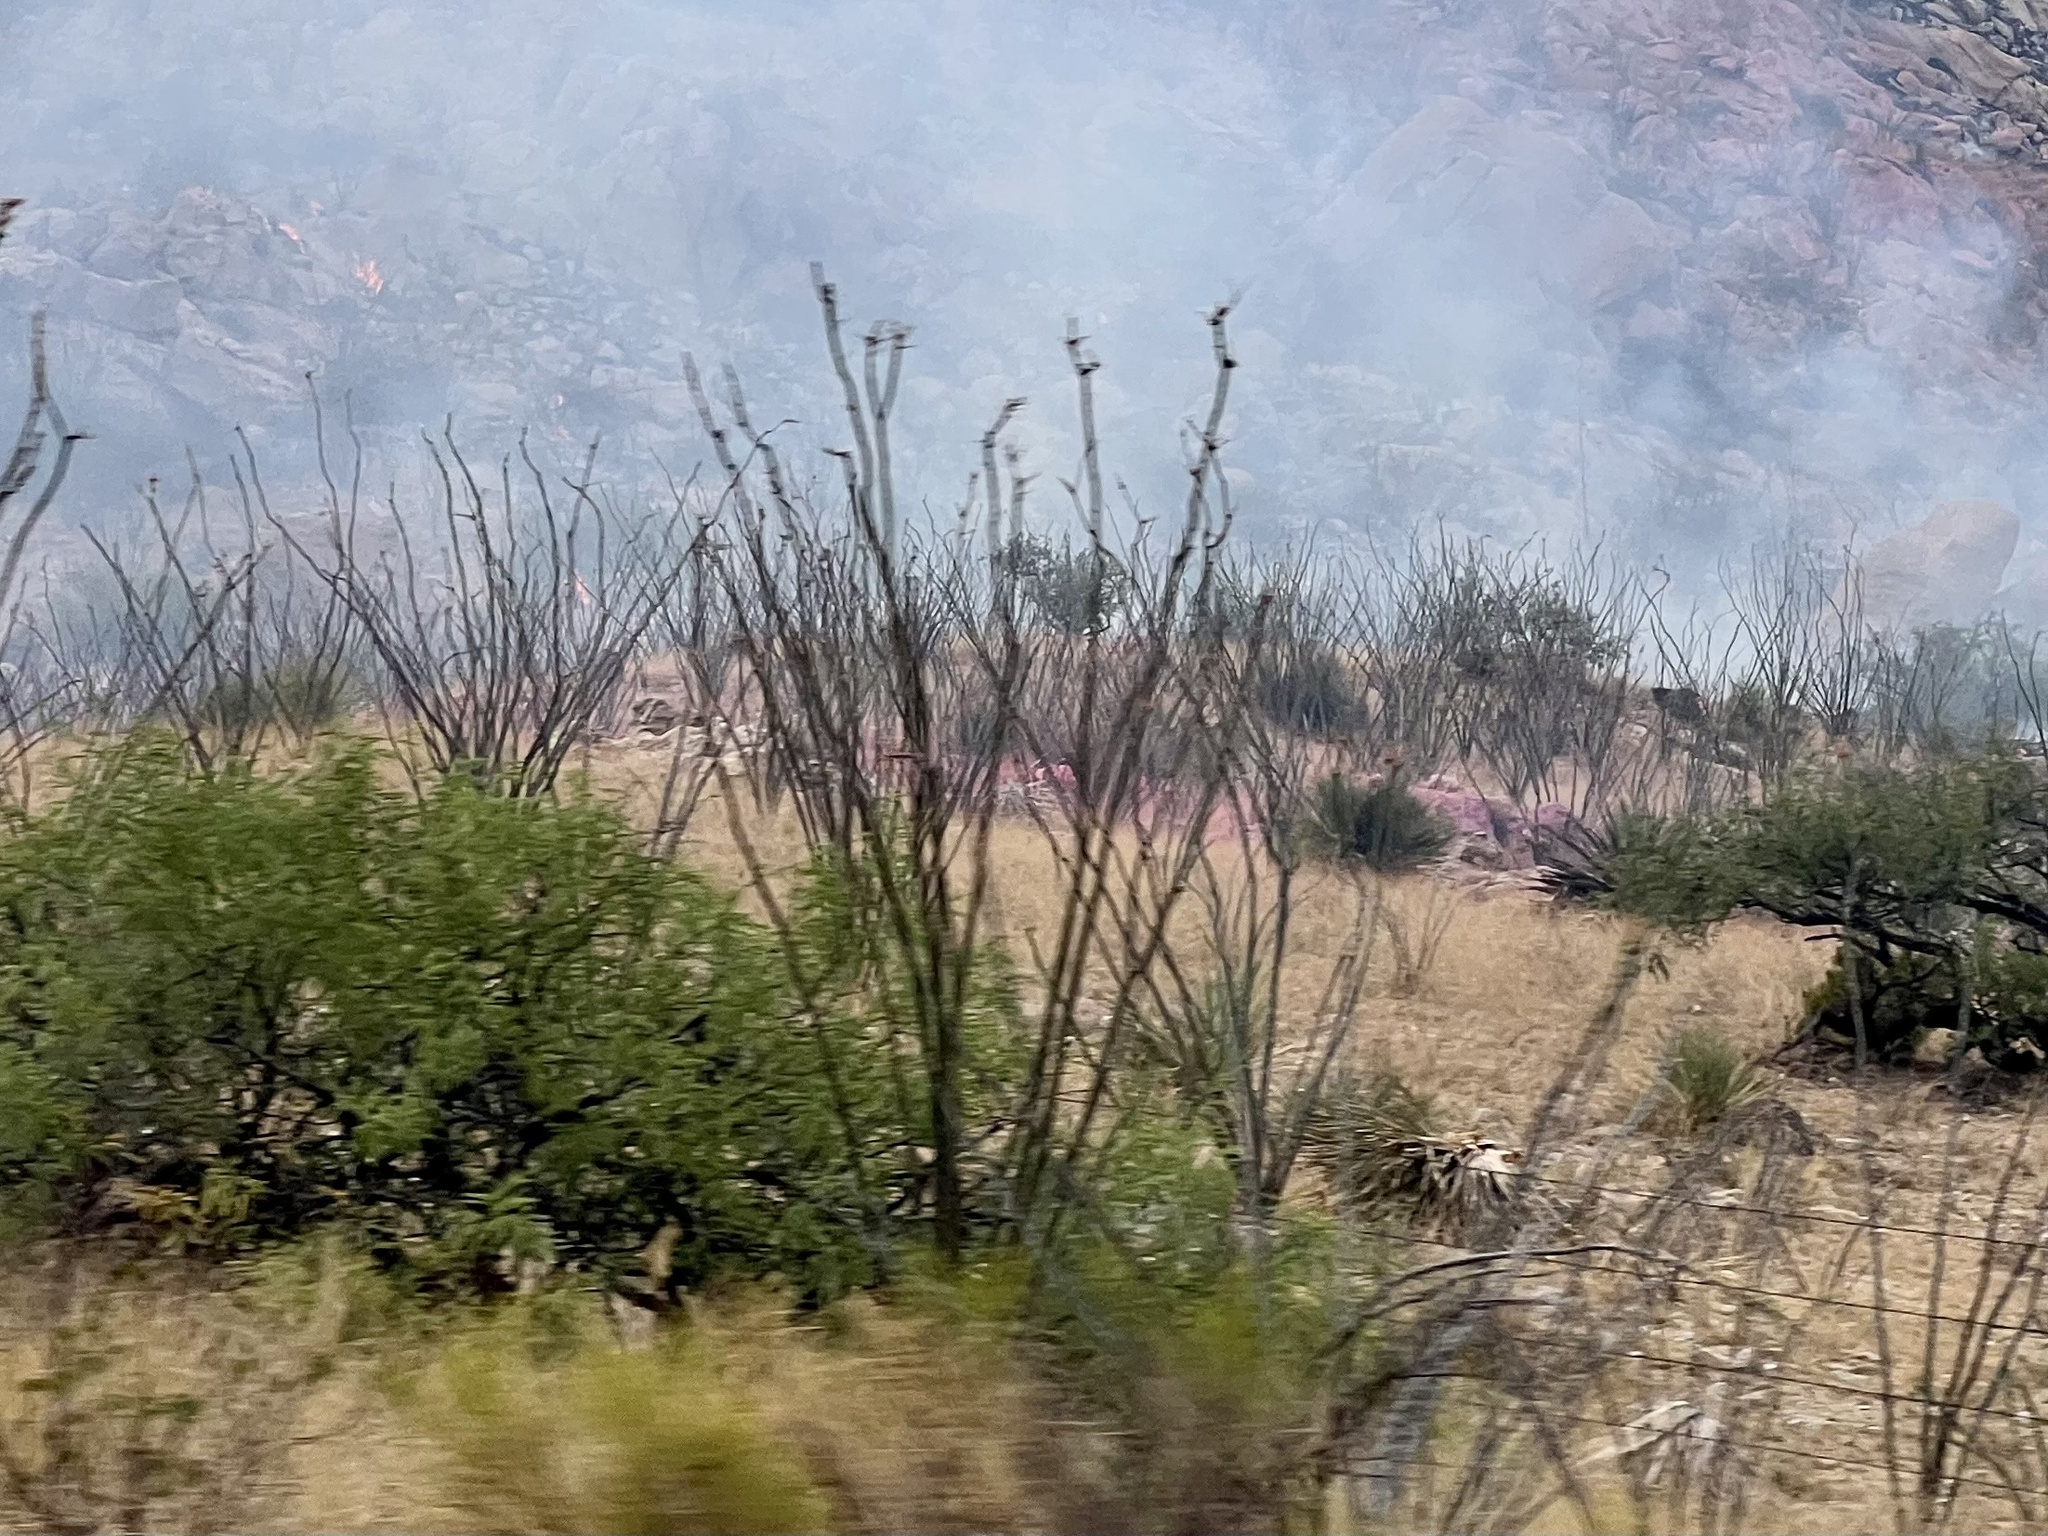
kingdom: Plantae
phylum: Tracheophyta
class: Magnoliopsida
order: Ericales
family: Fouquieriaceae
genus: Fouquieria
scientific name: Fouquieria splendens
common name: Vine-cactus
